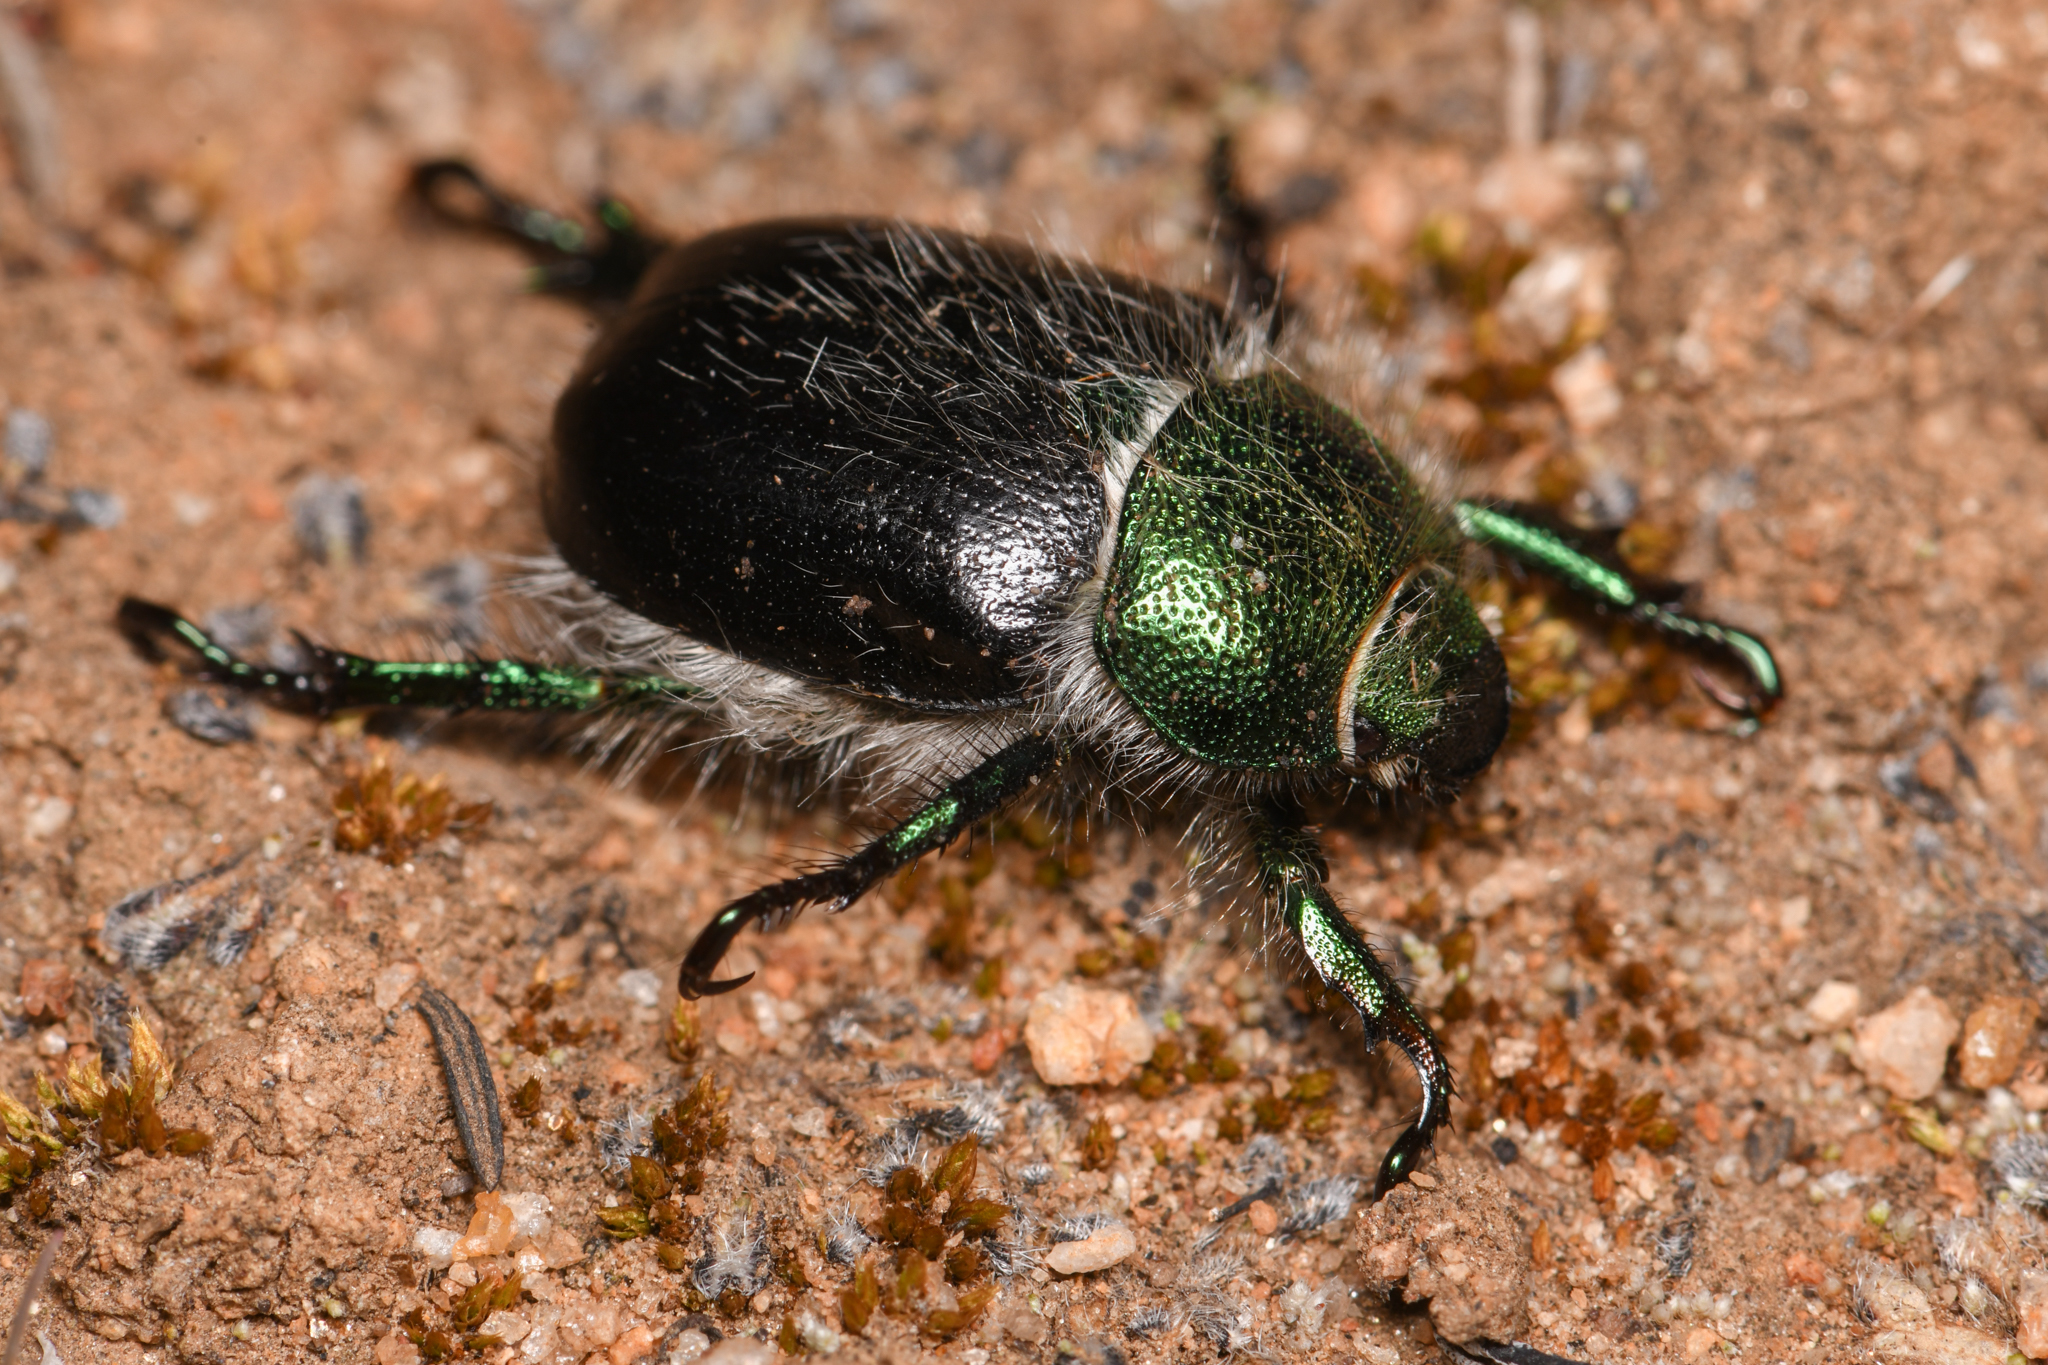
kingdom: Animalia
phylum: Arthropoda
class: Insecta
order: Coleoptera
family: Scarabaeidae
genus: Paracotalpa
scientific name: Paracotalpa ursina
